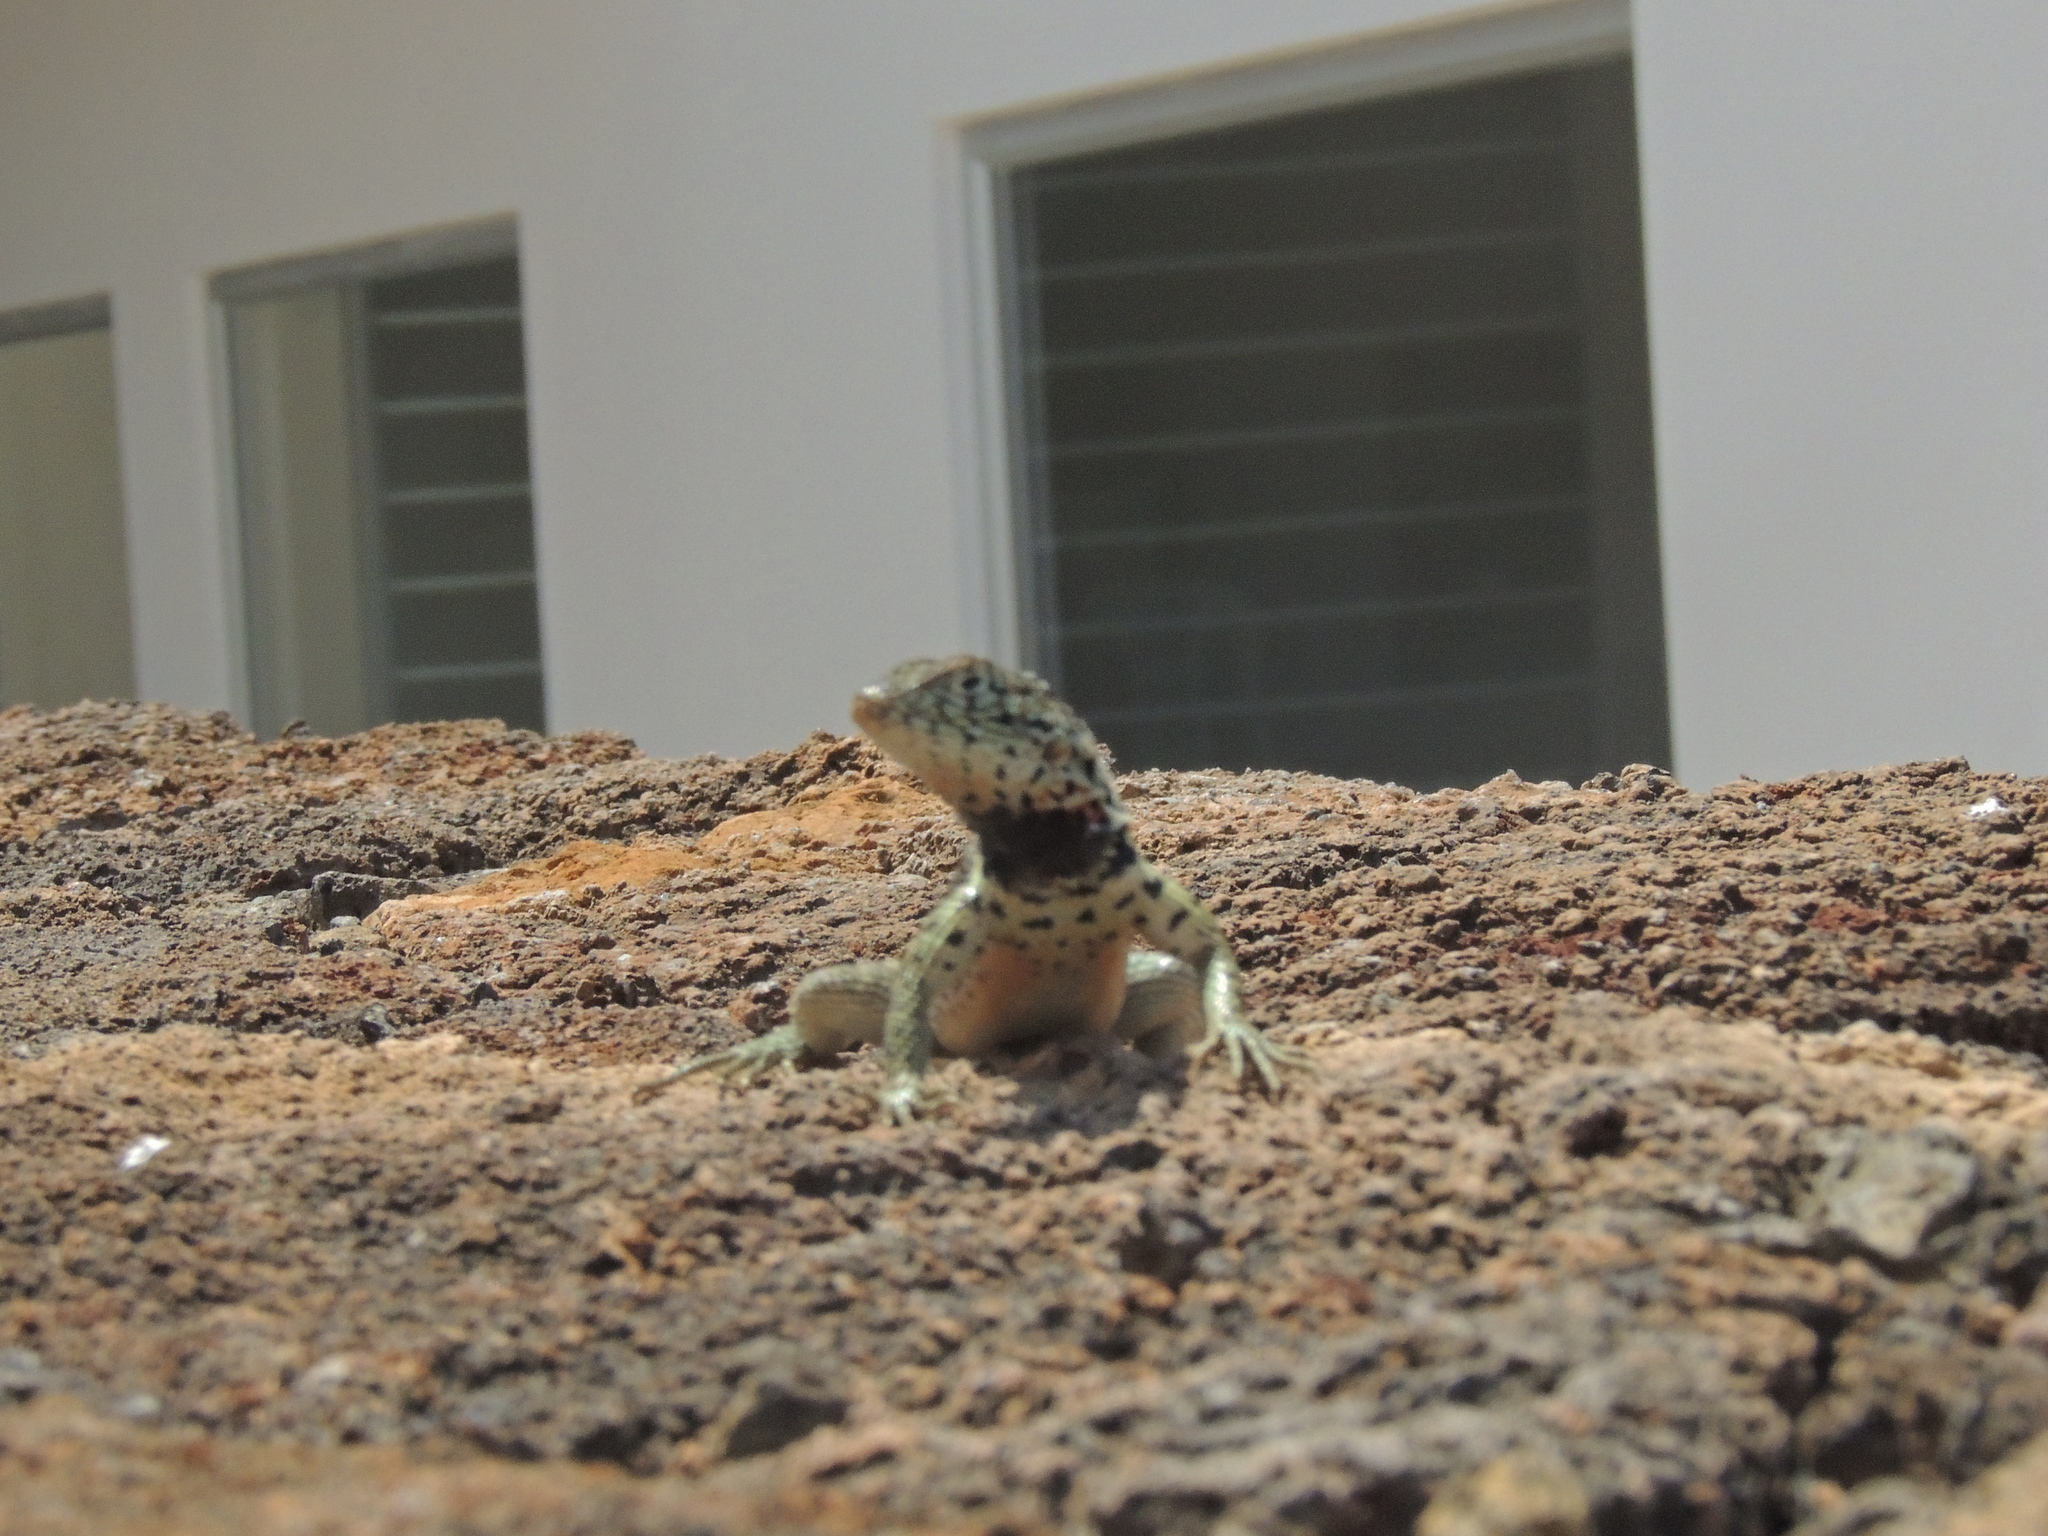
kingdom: Animalia
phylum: Chordata
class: Squamata
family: Tropiduridae
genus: Microlophus
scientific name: Microlophus indefatigabilis
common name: Galapagos lava lizard
